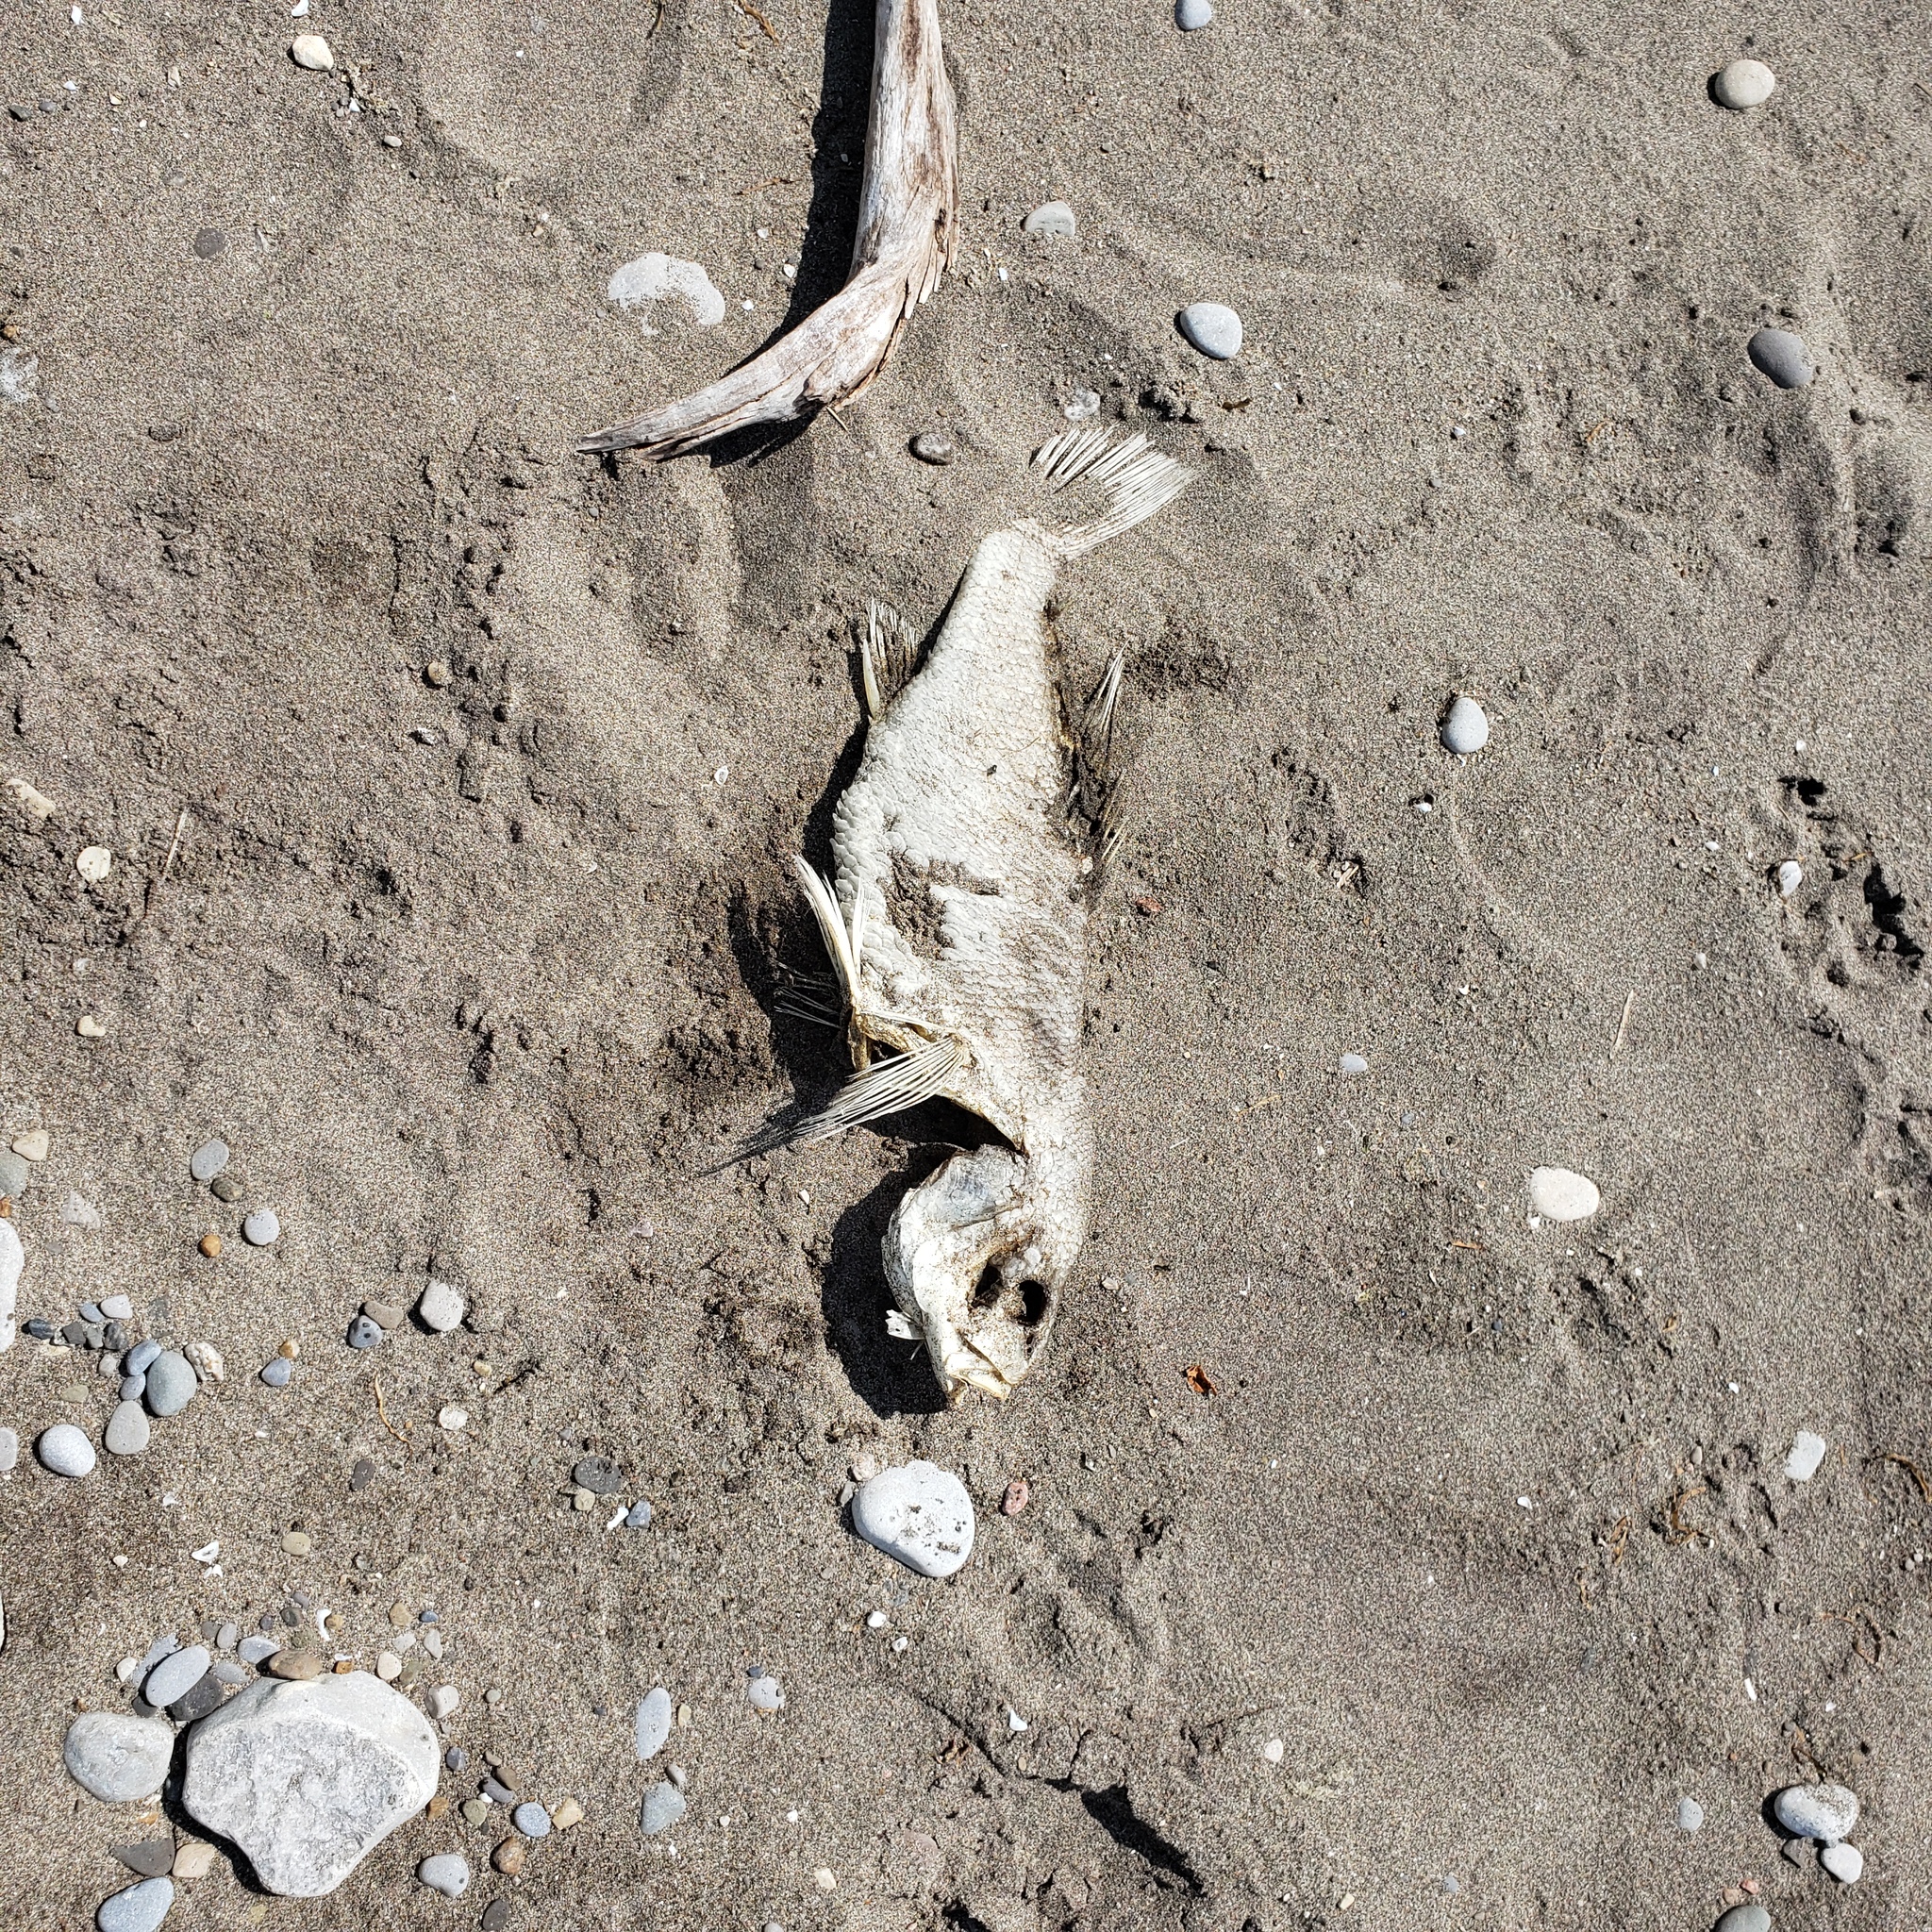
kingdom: Animalia
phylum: Chordata
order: Perciformes
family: Sciaenidae
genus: Aplodinotus
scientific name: Aplodinotus grunniens
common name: Freshwater drum
